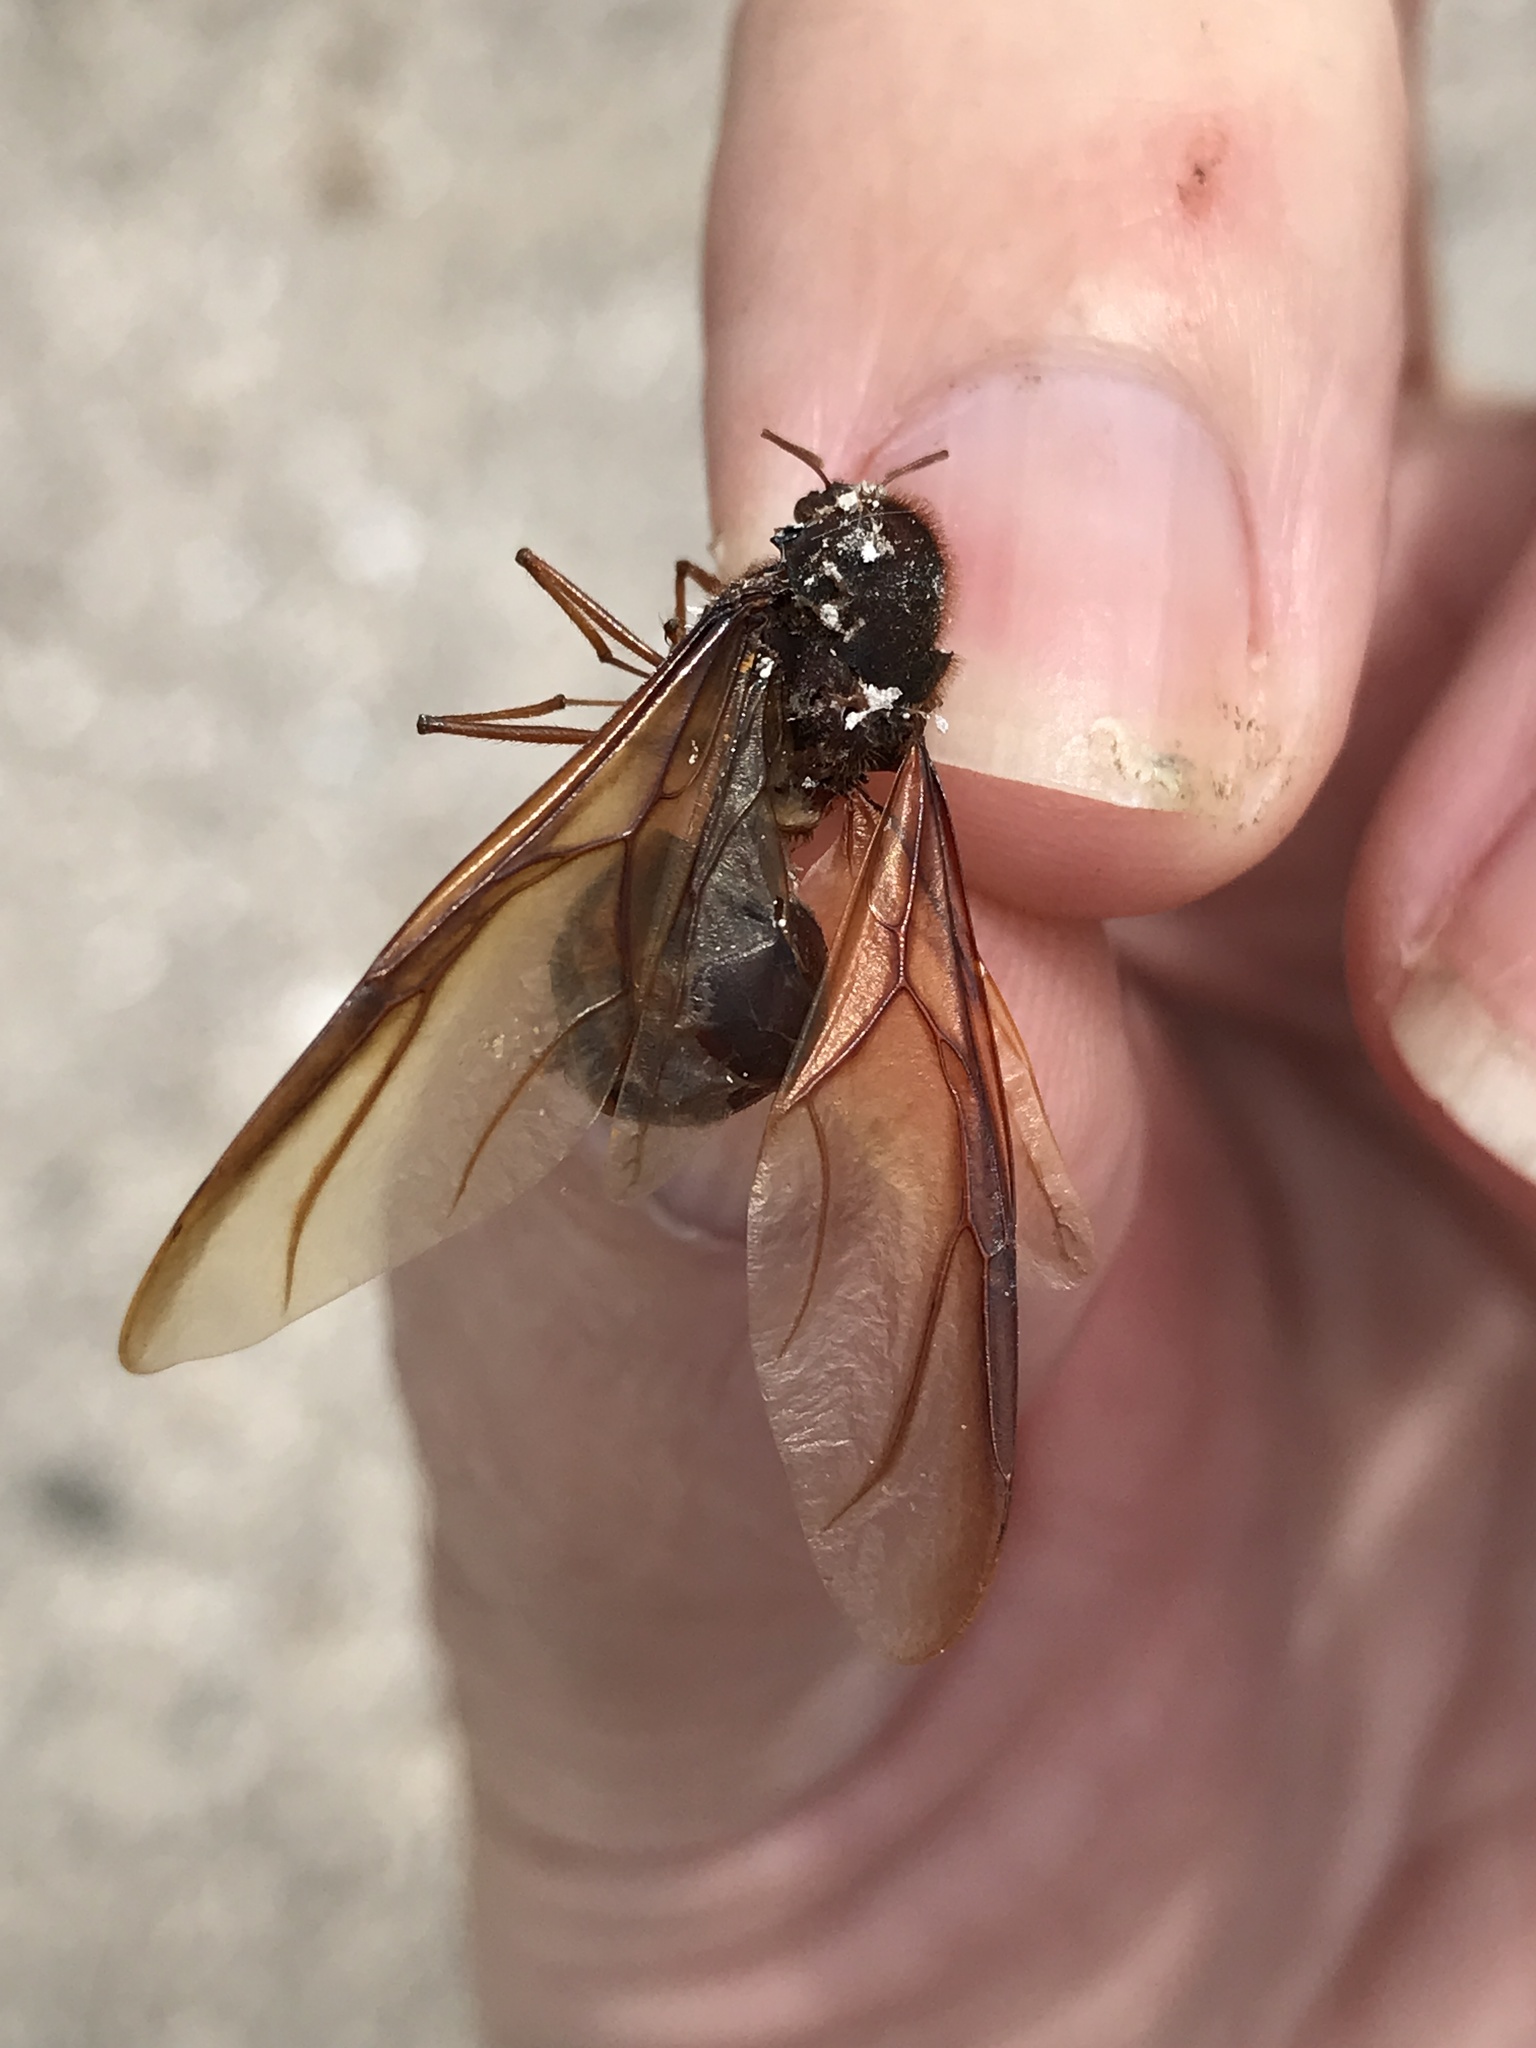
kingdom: Animalia
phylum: Arthropoda
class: Insecta
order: Hymenoptera
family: Formicidae
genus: Atta
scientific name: Atta texana
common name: Texas leafcutting ant
